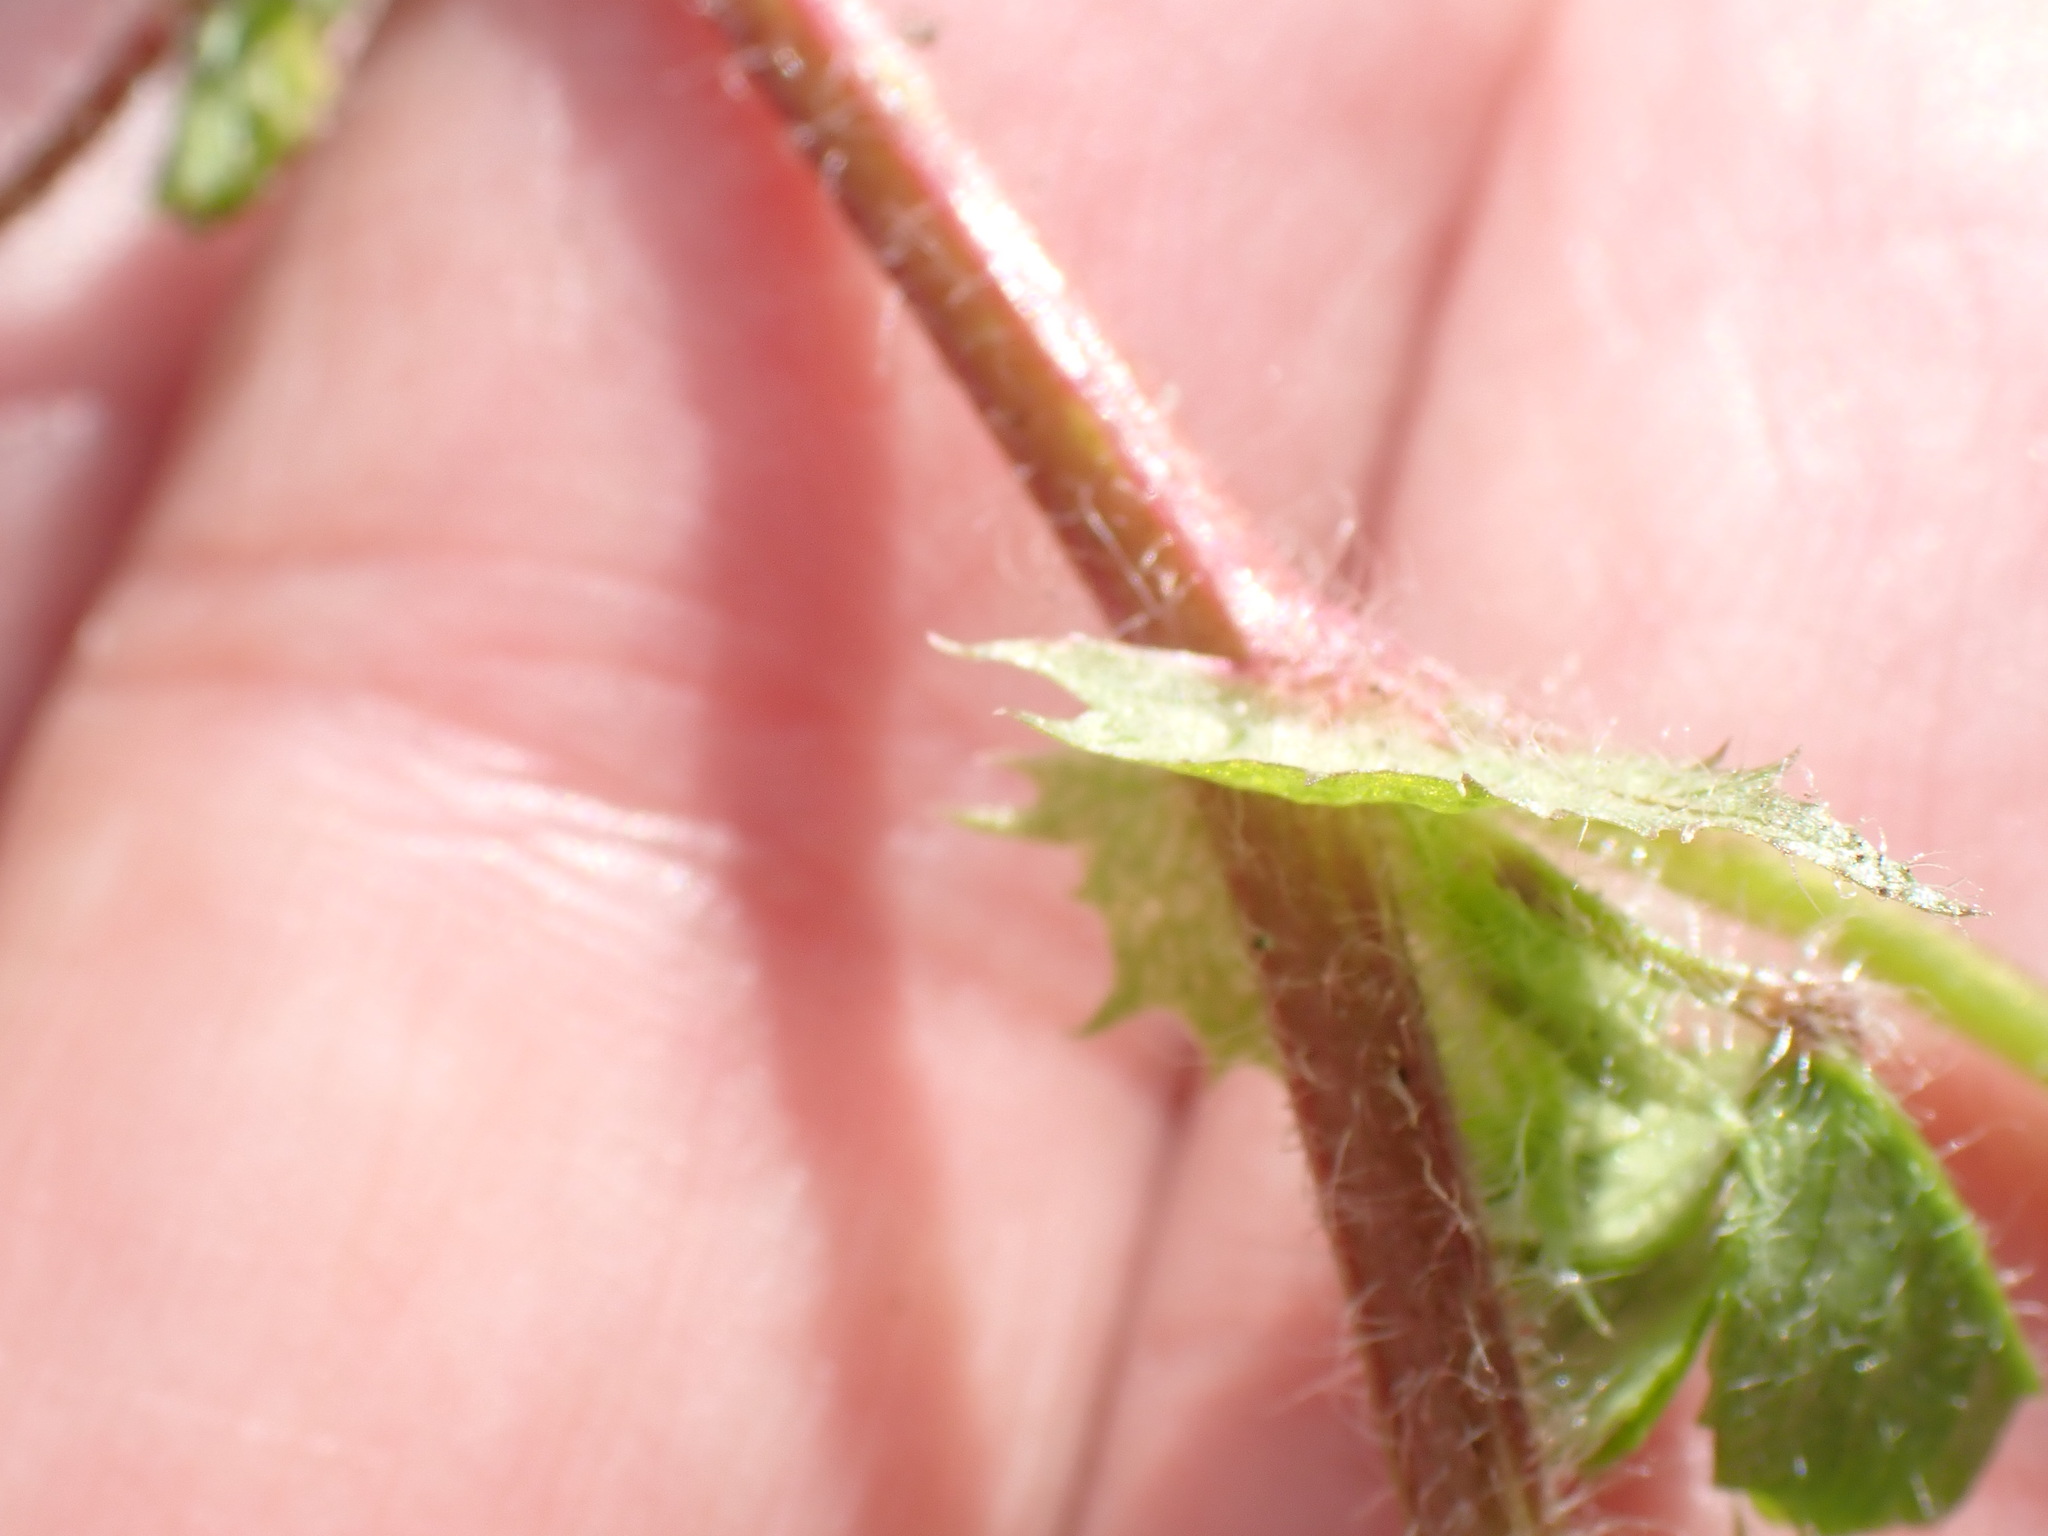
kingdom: Plantae
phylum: Tracheophyta
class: Magnoliopsida
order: Fabales
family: Fabaceae
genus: Medicago
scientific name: Medicago arabica
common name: Spotted medick
